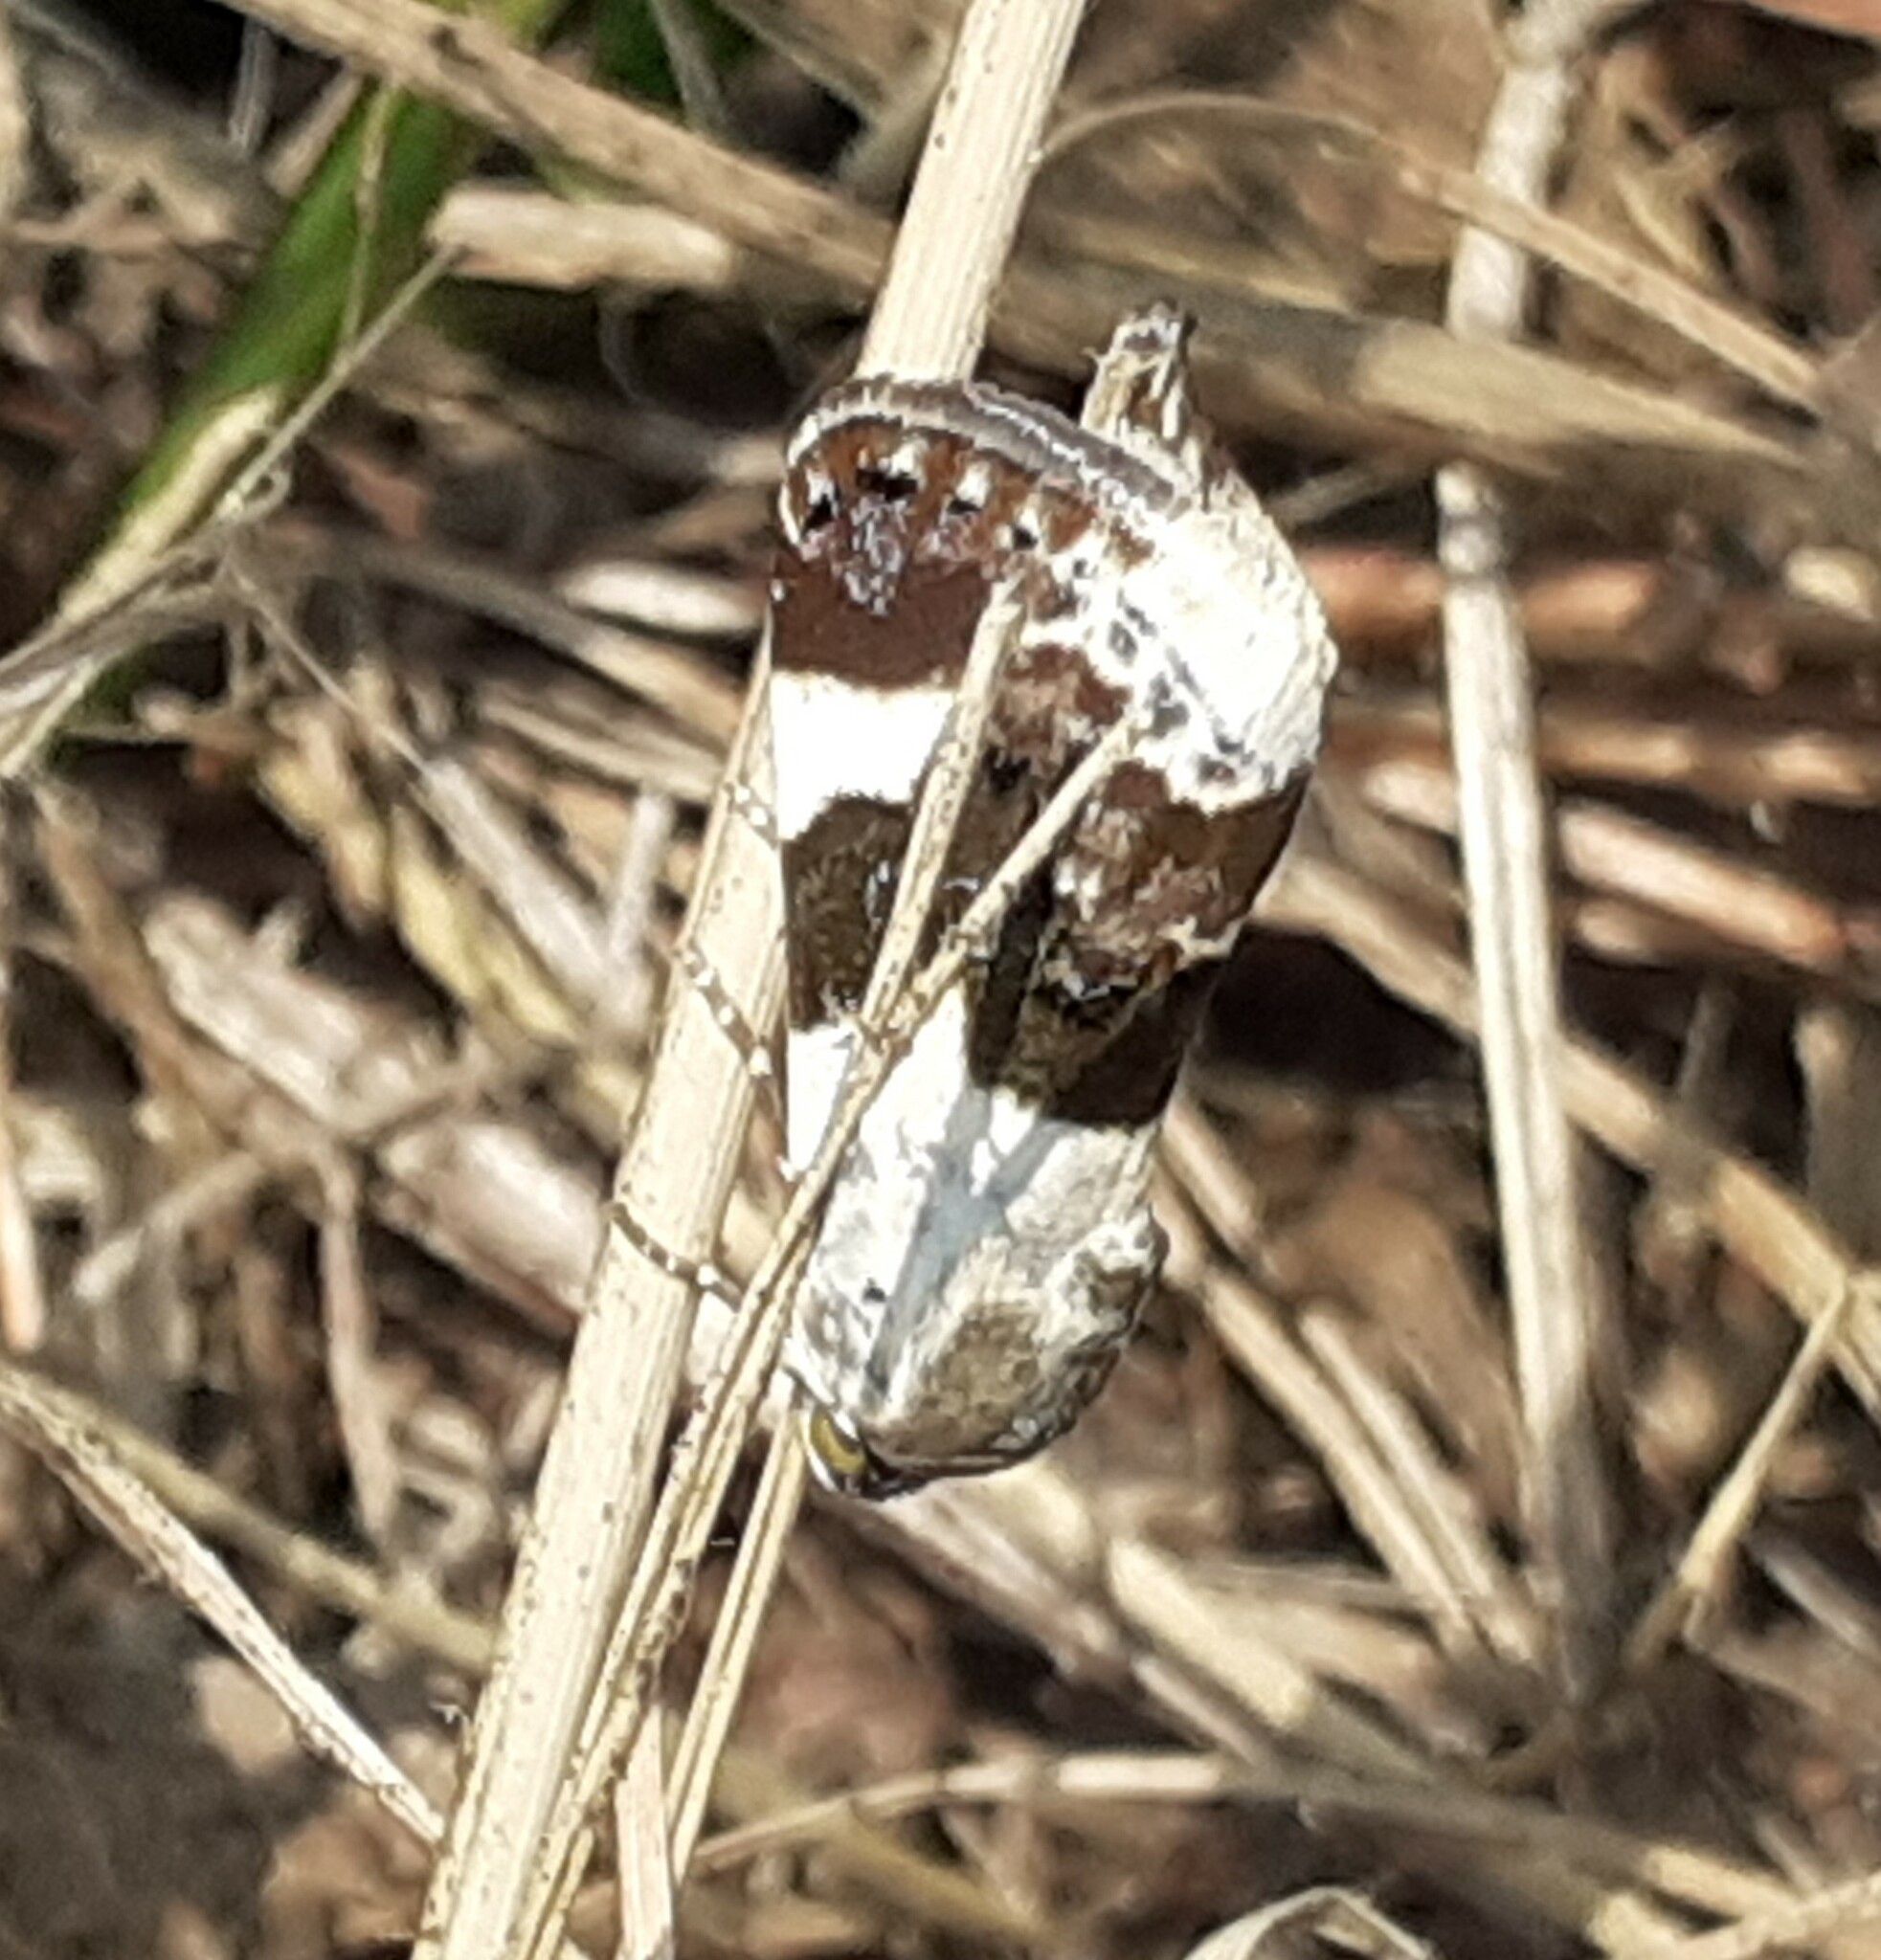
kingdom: Animalia
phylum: Arthropoda
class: Insecta
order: Lepidoptera
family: Noctuidae
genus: Acontia
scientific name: Acontia lucida
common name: Pale shoulder
